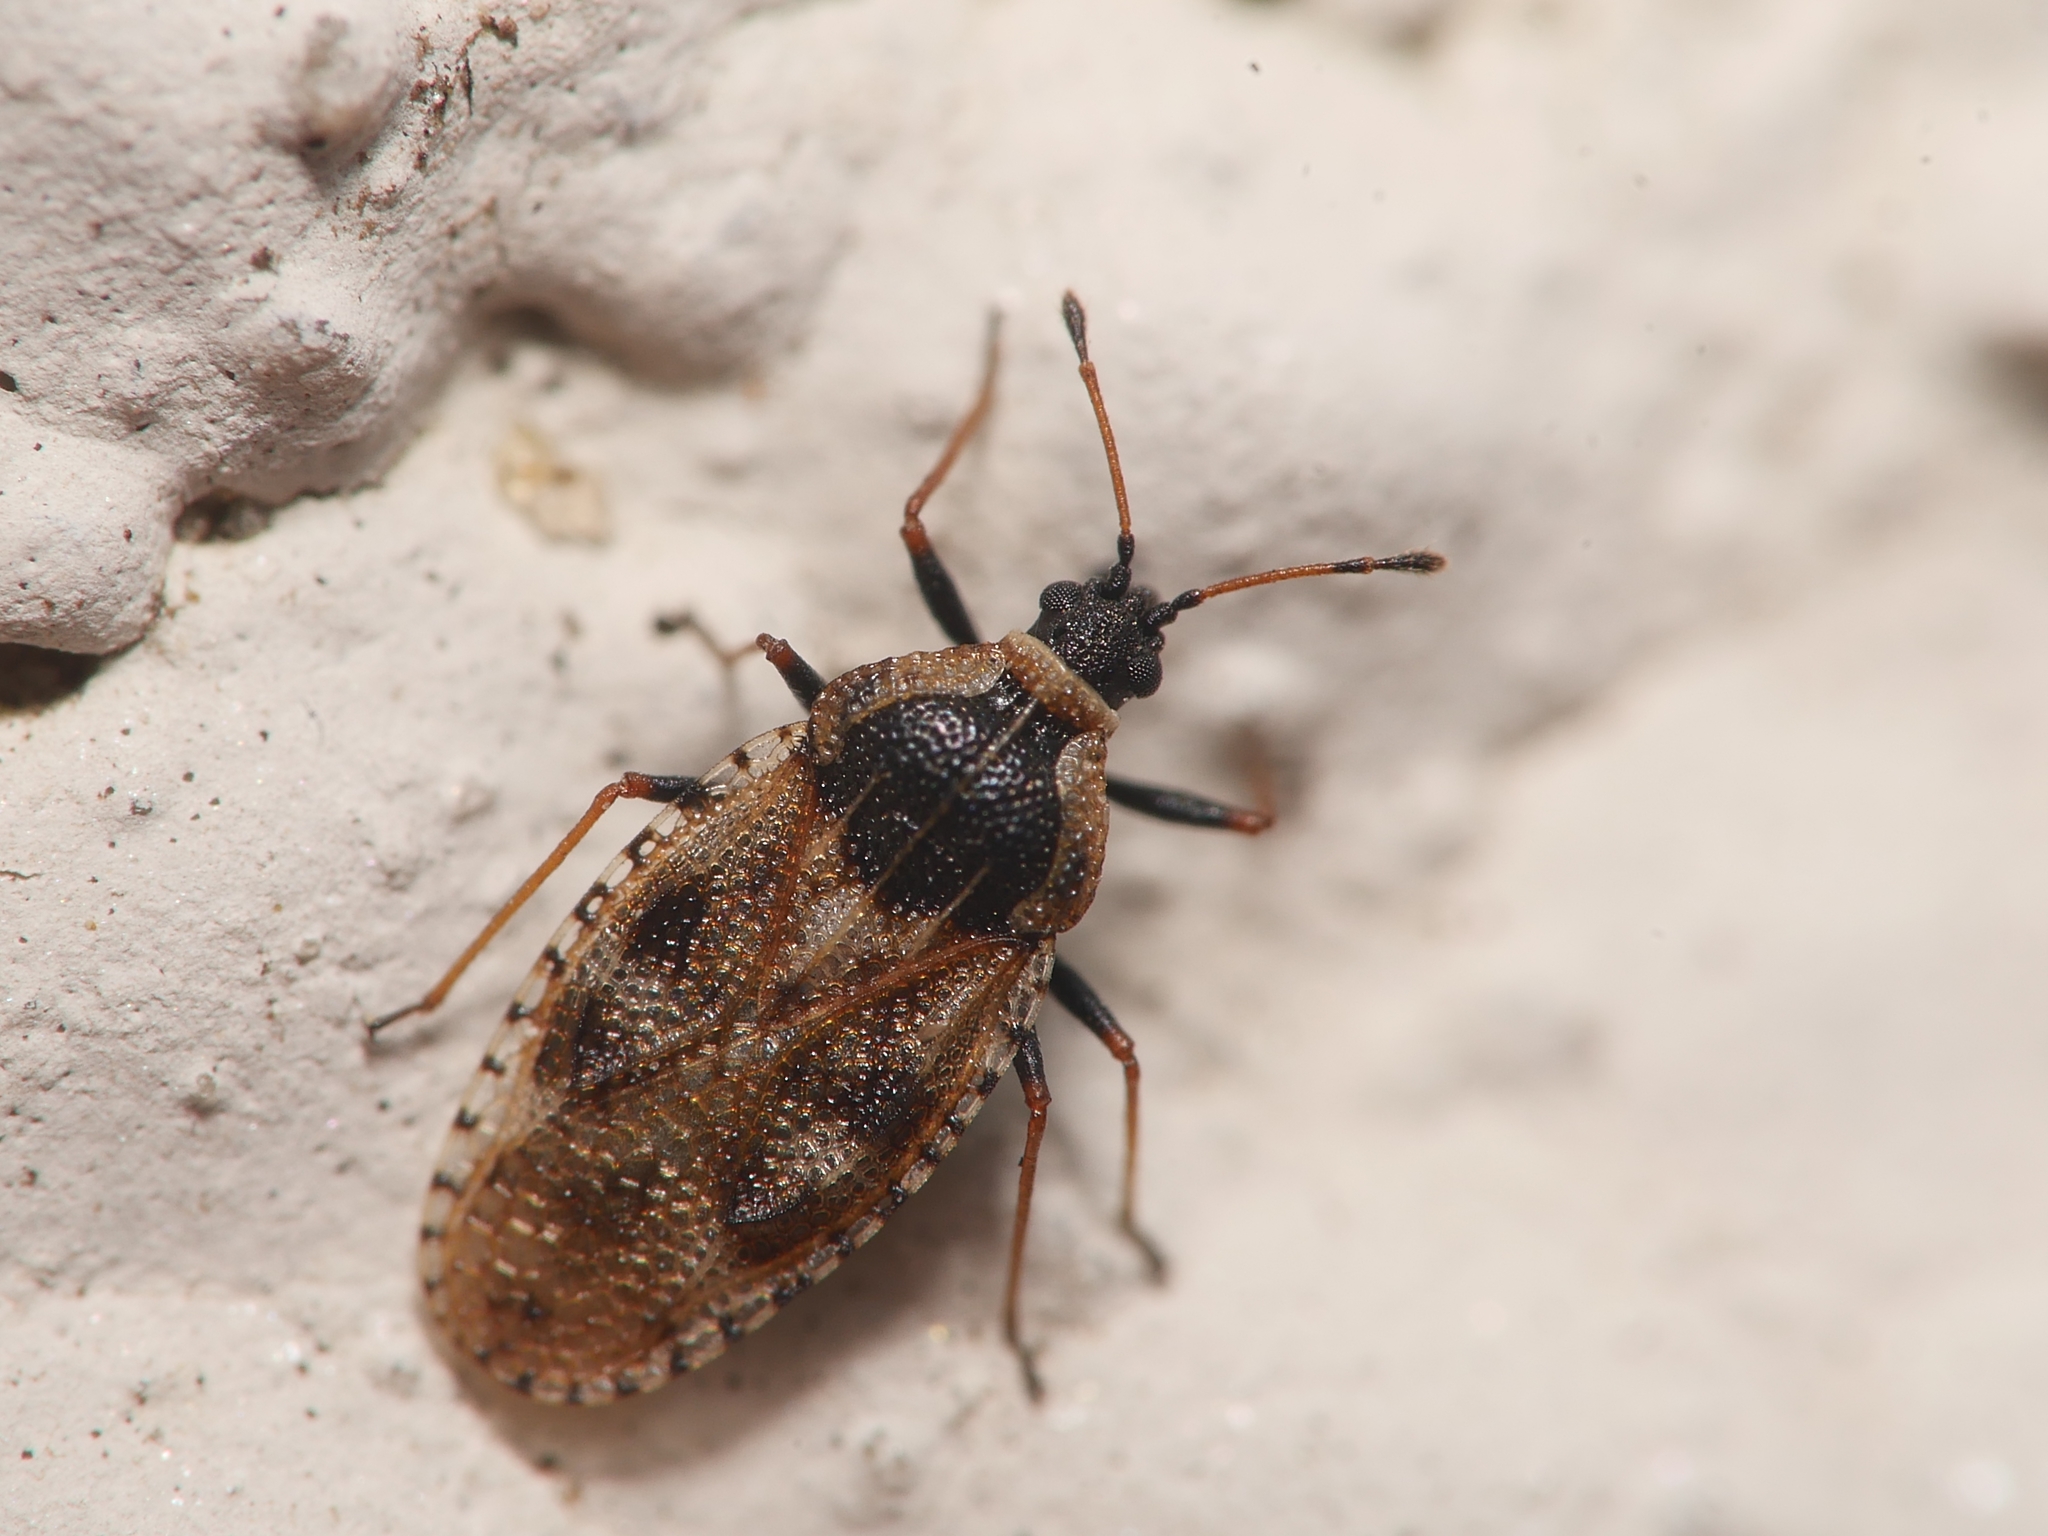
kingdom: Animalia
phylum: Arthropoda
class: Insecta
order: Hemiptera
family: Tingidae
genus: Dictyla
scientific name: Dictyla echii
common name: Lace bug
